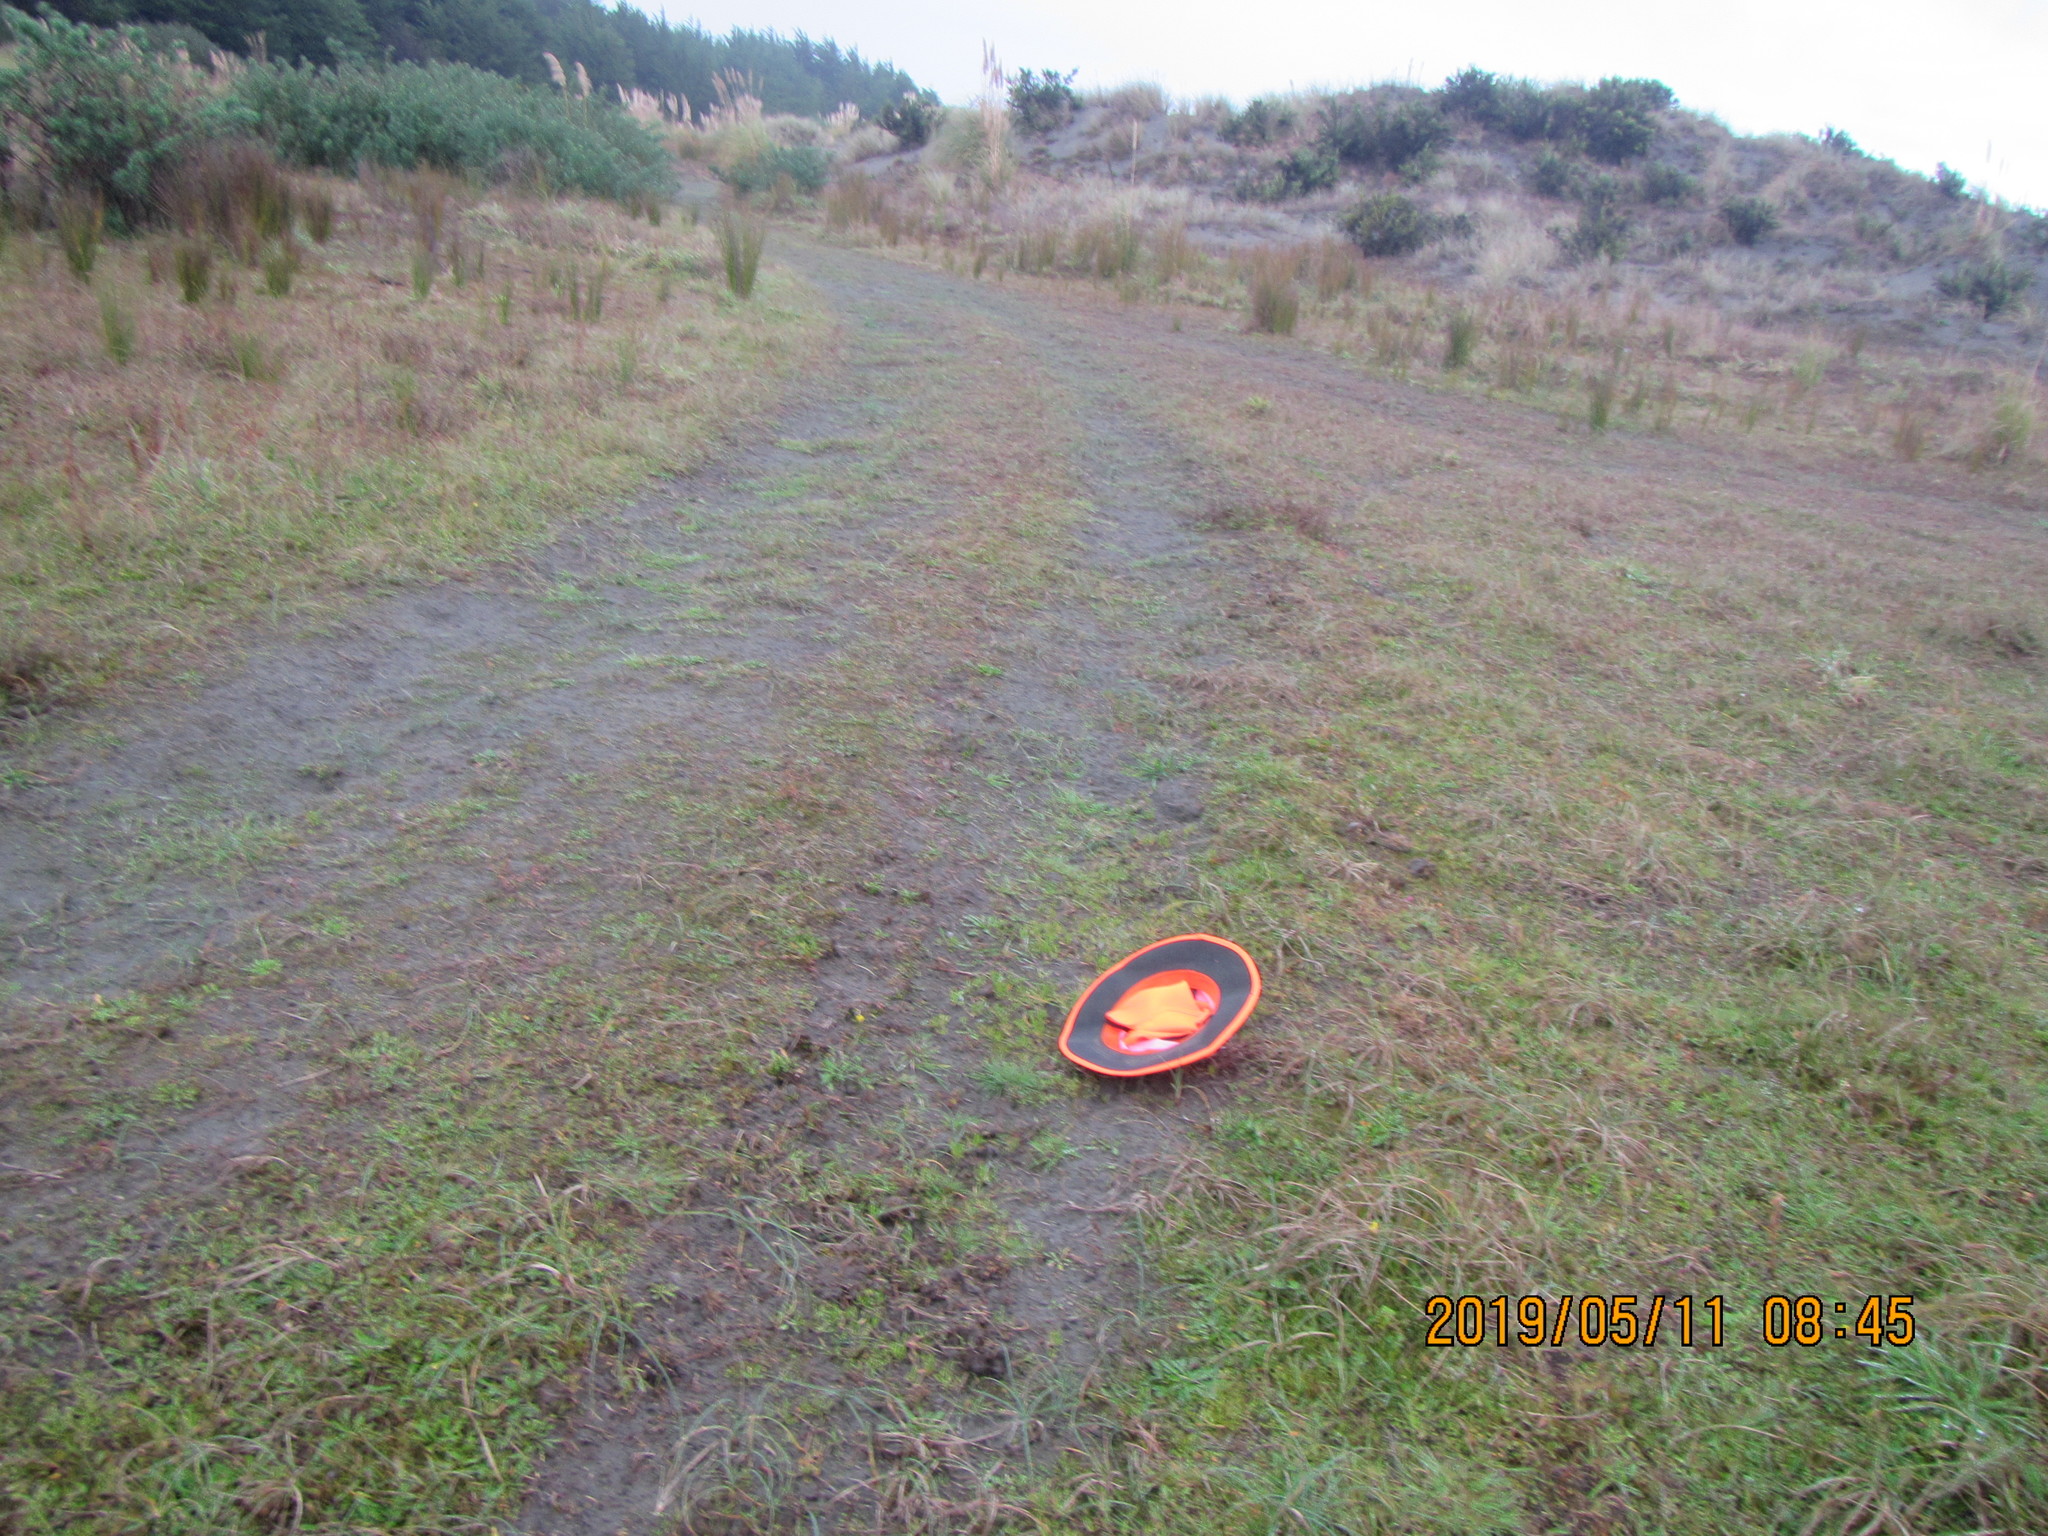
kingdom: Plantae
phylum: Tracheophyta
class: Magnoliopsida
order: Asterales
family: Asteraceae
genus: Cotula
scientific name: Cotula coronopifolia
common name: Buttonweed
